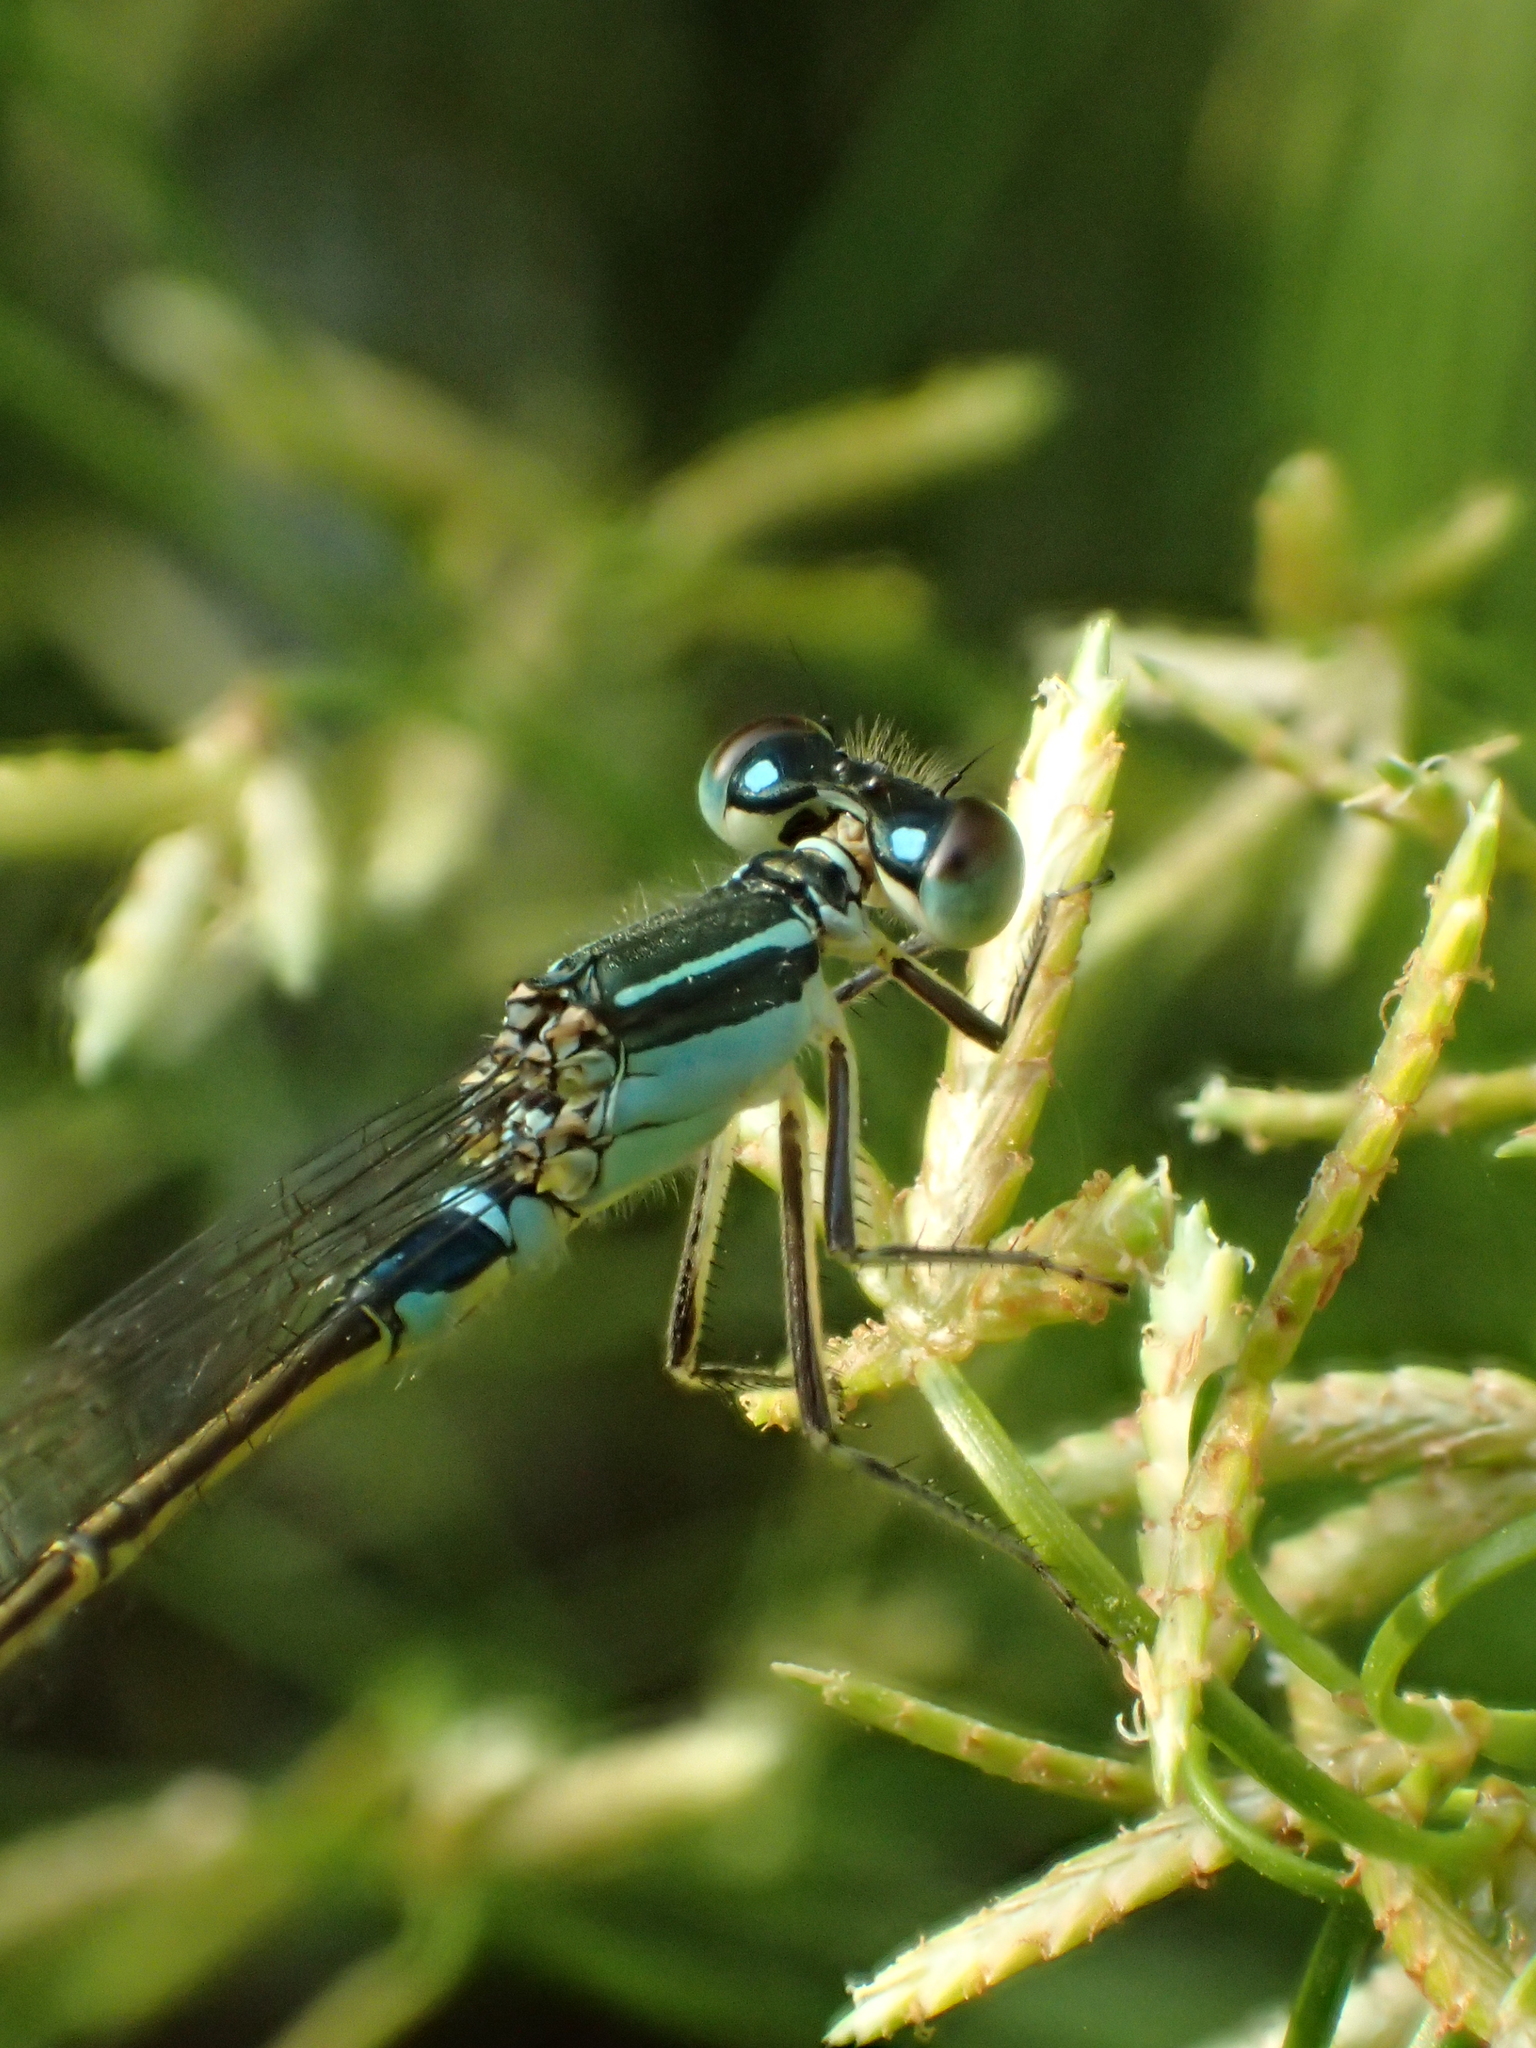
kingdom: Animalia
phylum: Arthropoda
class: Insecta
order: Odonata
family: Coenagrionidae
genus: Ischnura
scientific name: Ischnura senegalensis
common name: Tropical bluetail
